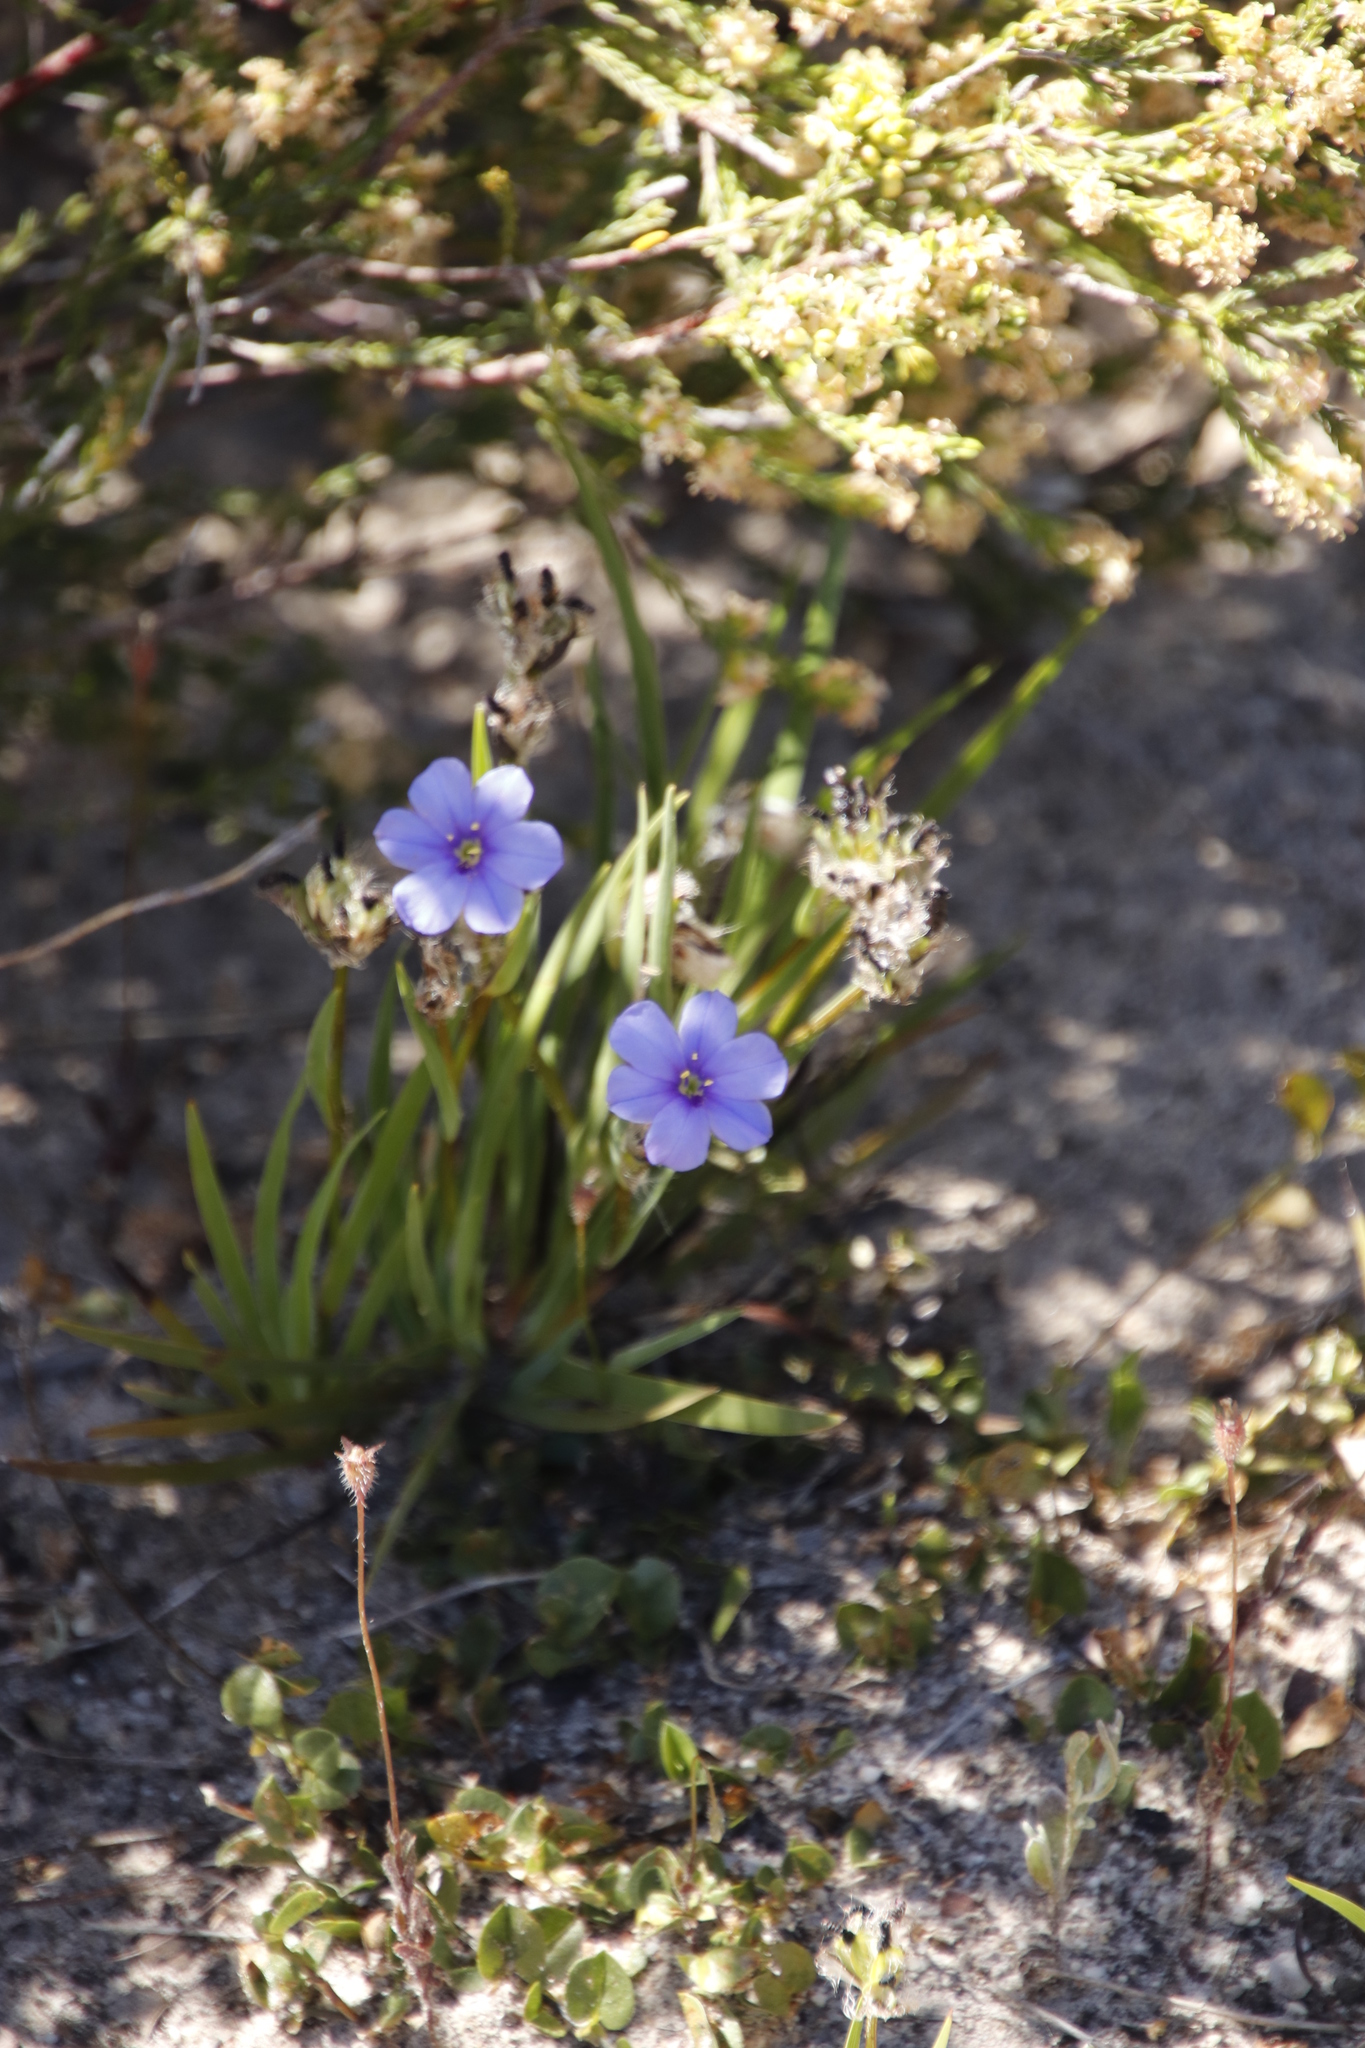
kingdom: Plantae
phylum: Tracheophyta
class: Liliopsida
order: Asparagales
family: Iridaceae
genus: Aristea
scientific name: Aristea africana
